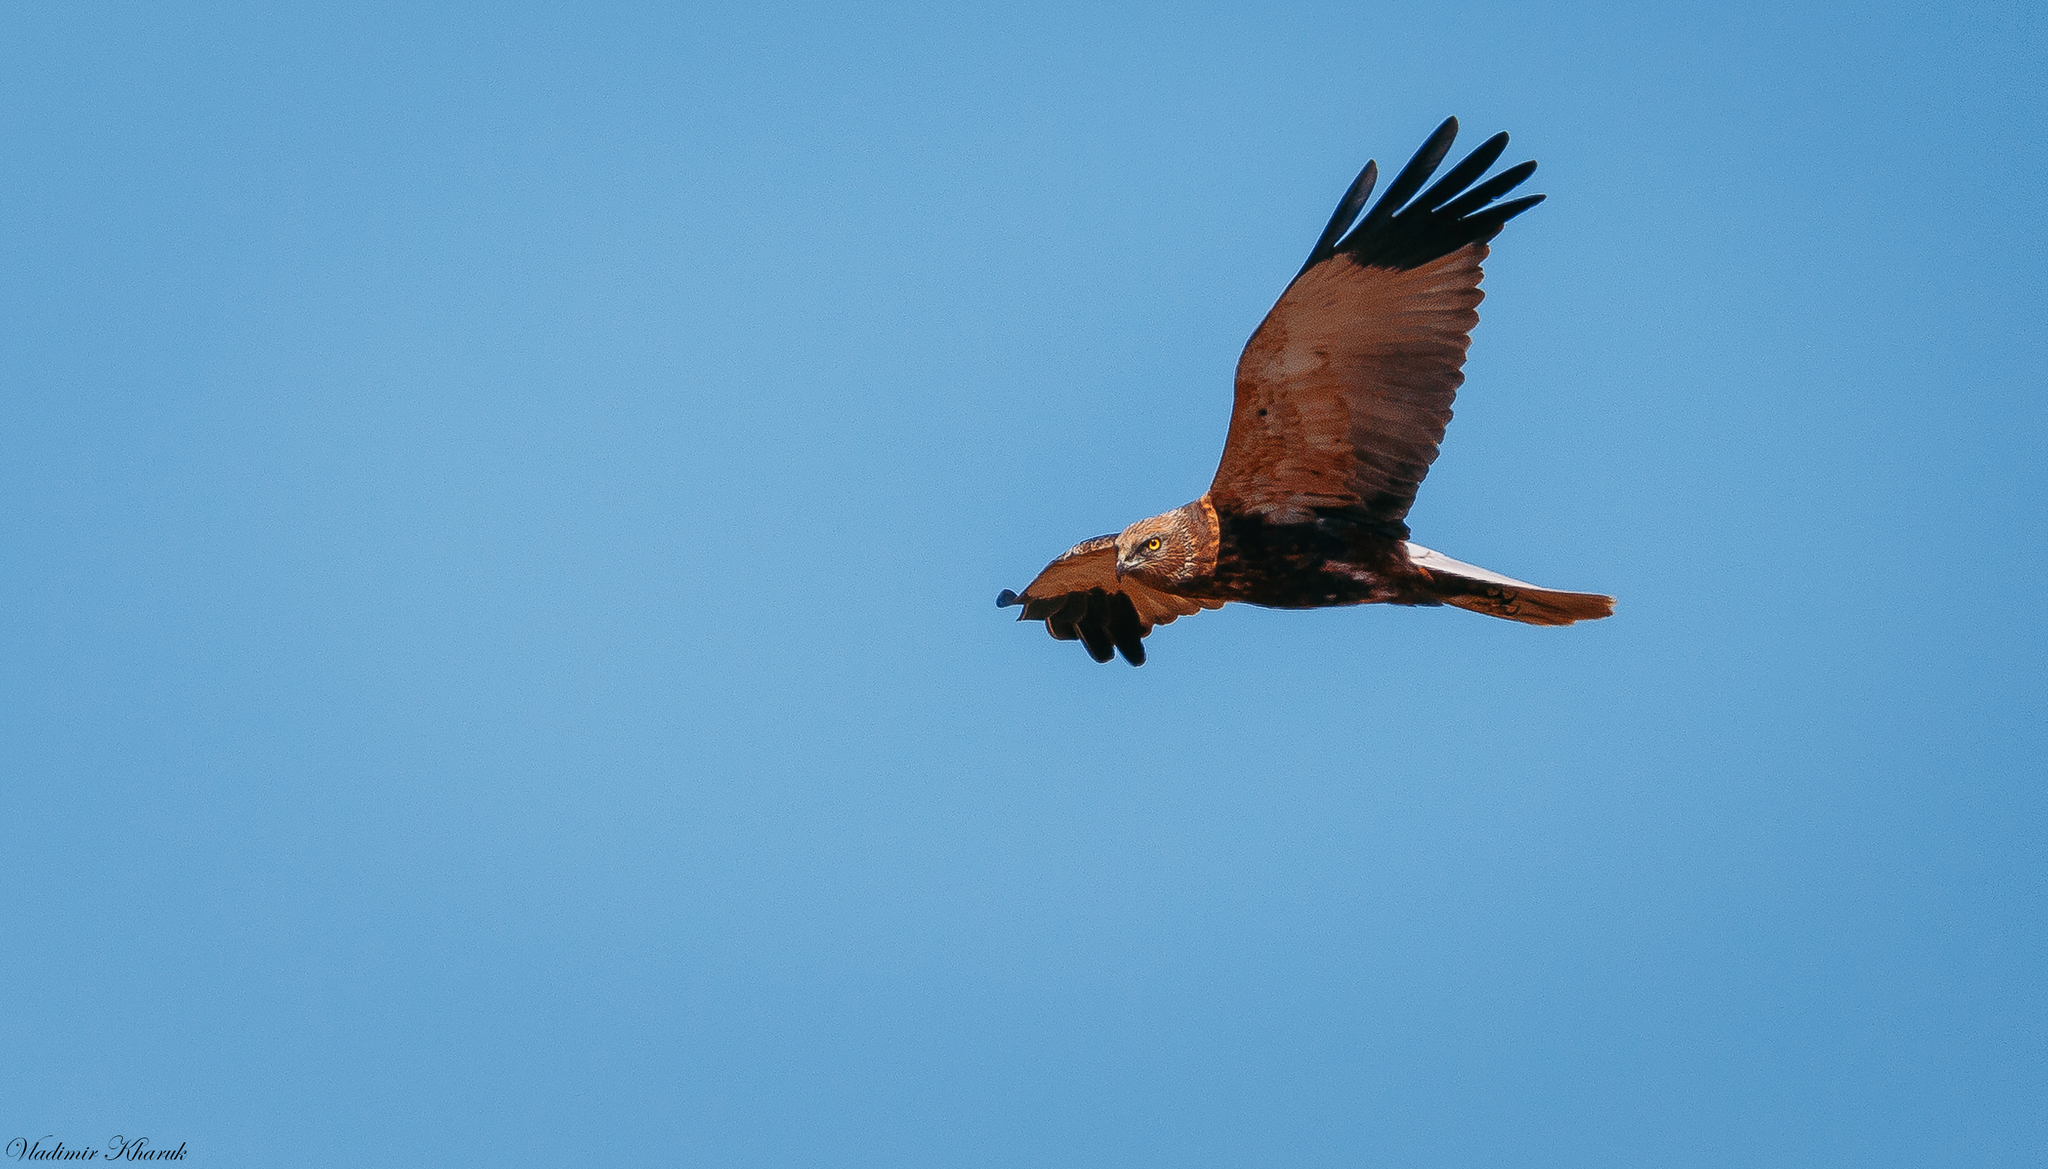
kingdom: Animalia
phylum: Chordata
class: Aves
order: Accipitriformes
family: Accipitridae
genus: Circus
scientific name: Circus aeruginosus
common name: Western marsh harrier
